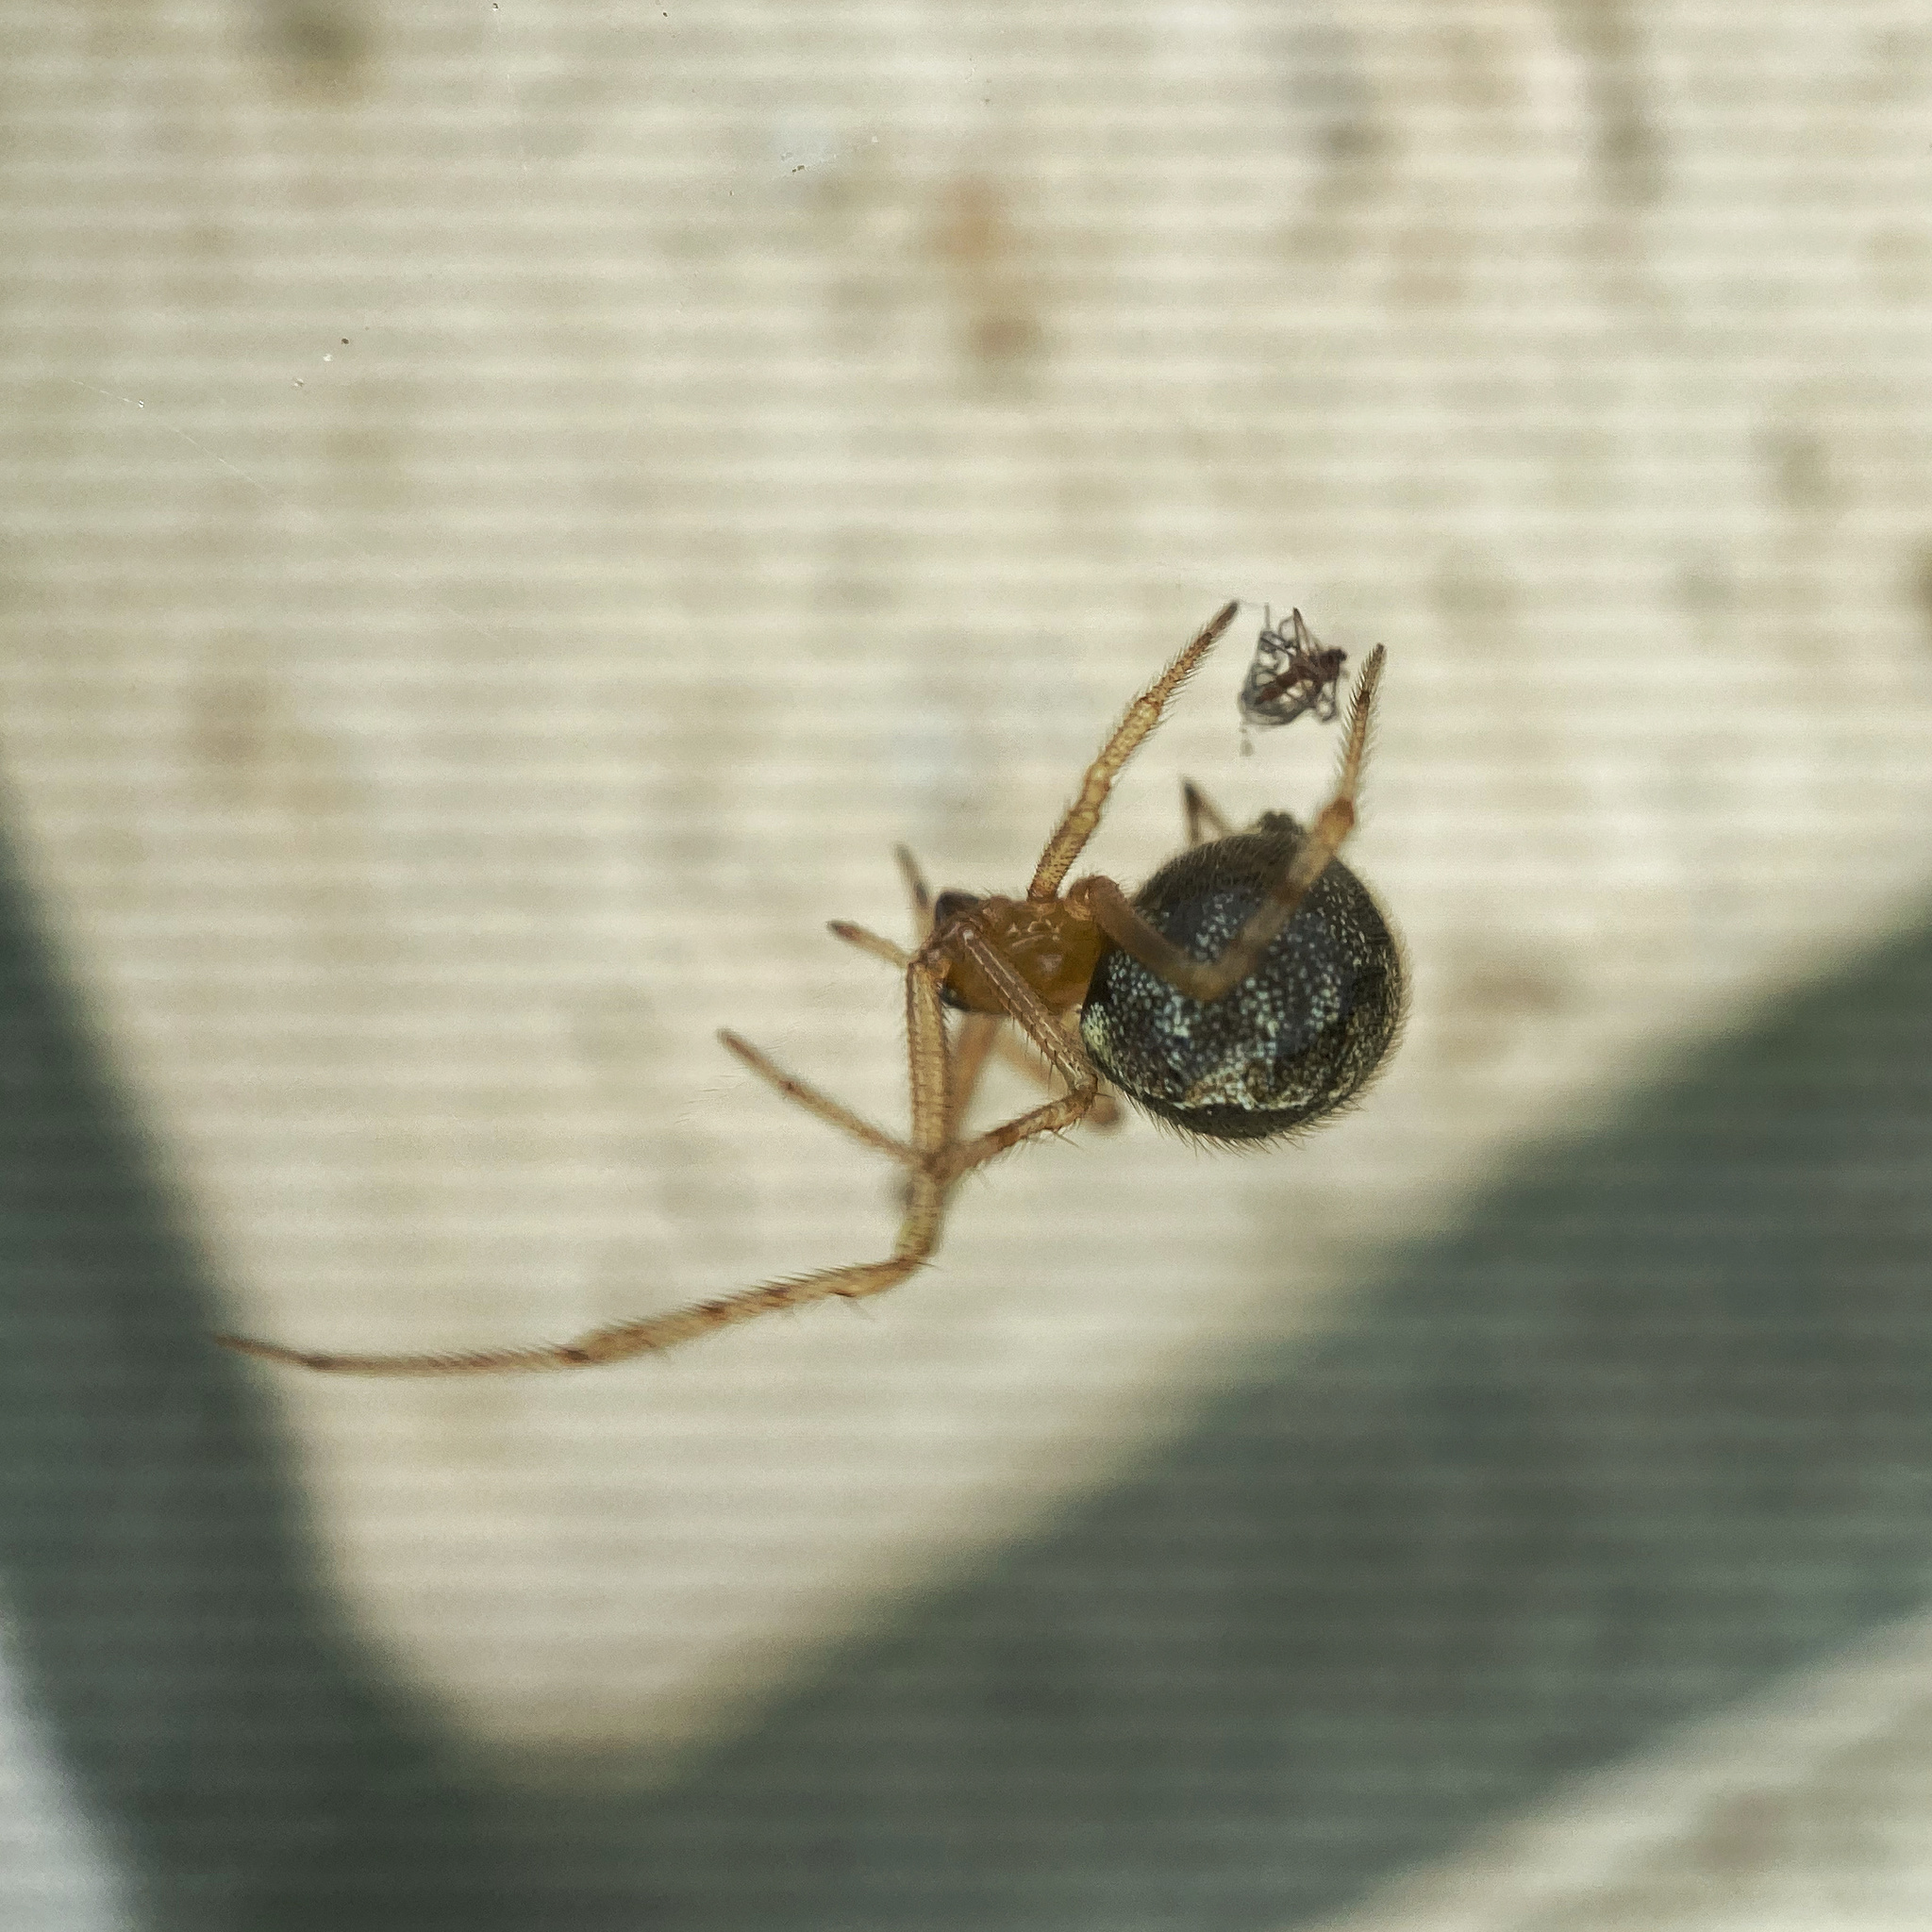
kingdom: Animalia
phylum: Arthropoda
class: Arachnida
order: Araneae
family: Theridiidae
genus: Cryptachaea
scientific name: Cryptachaea veruculata
